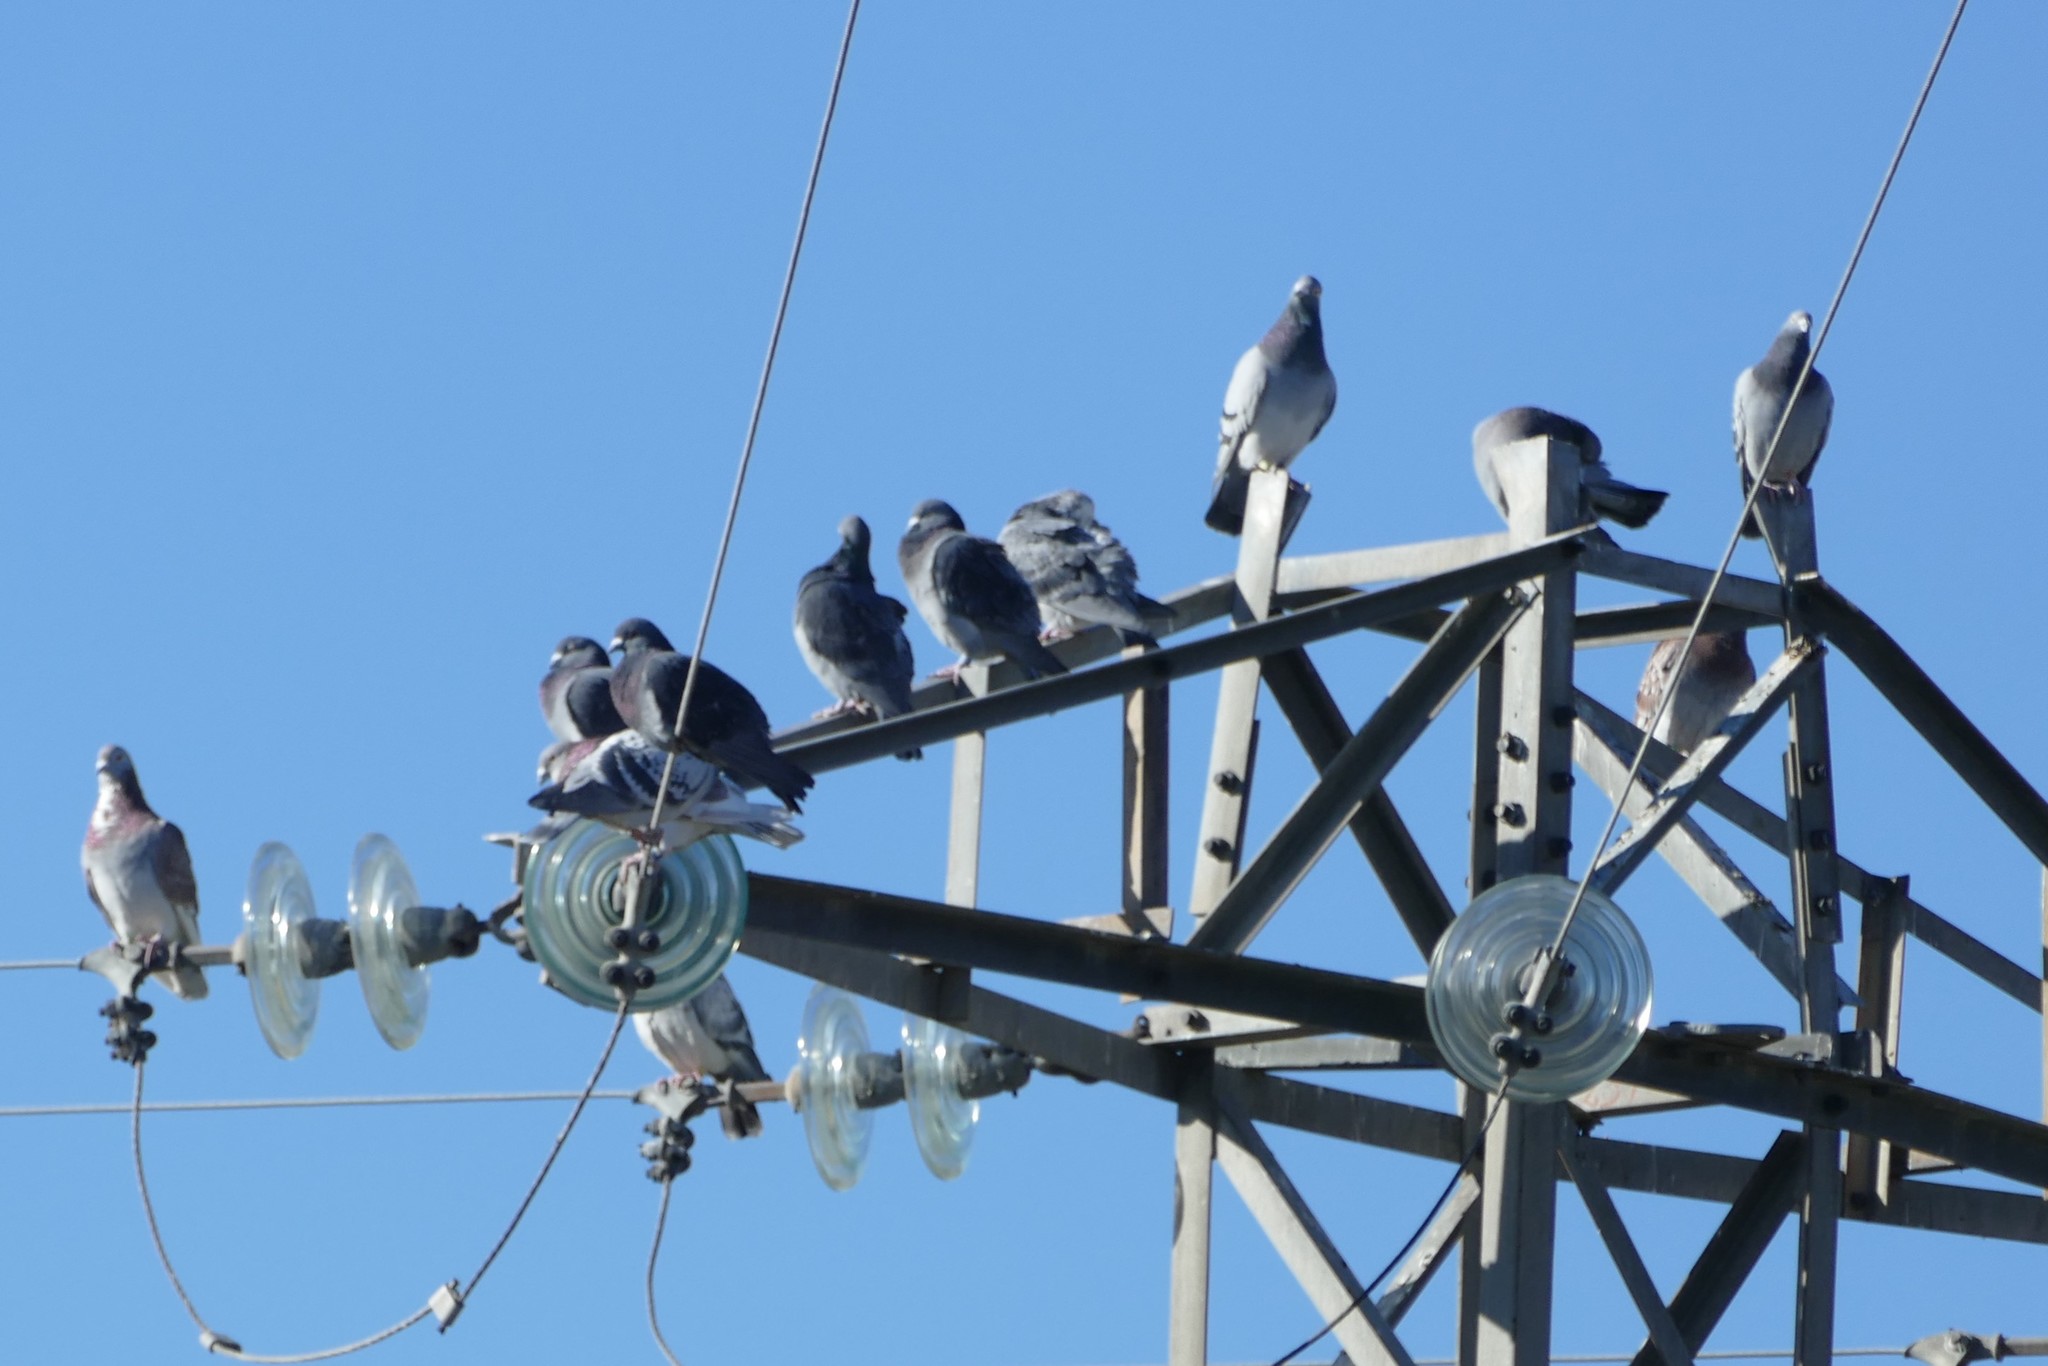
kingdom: Animalia
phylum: Chordata
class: Aves
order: Columbiformes
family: Columbidae
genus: Columba
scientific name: Columba livia
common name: Rock pigeon
